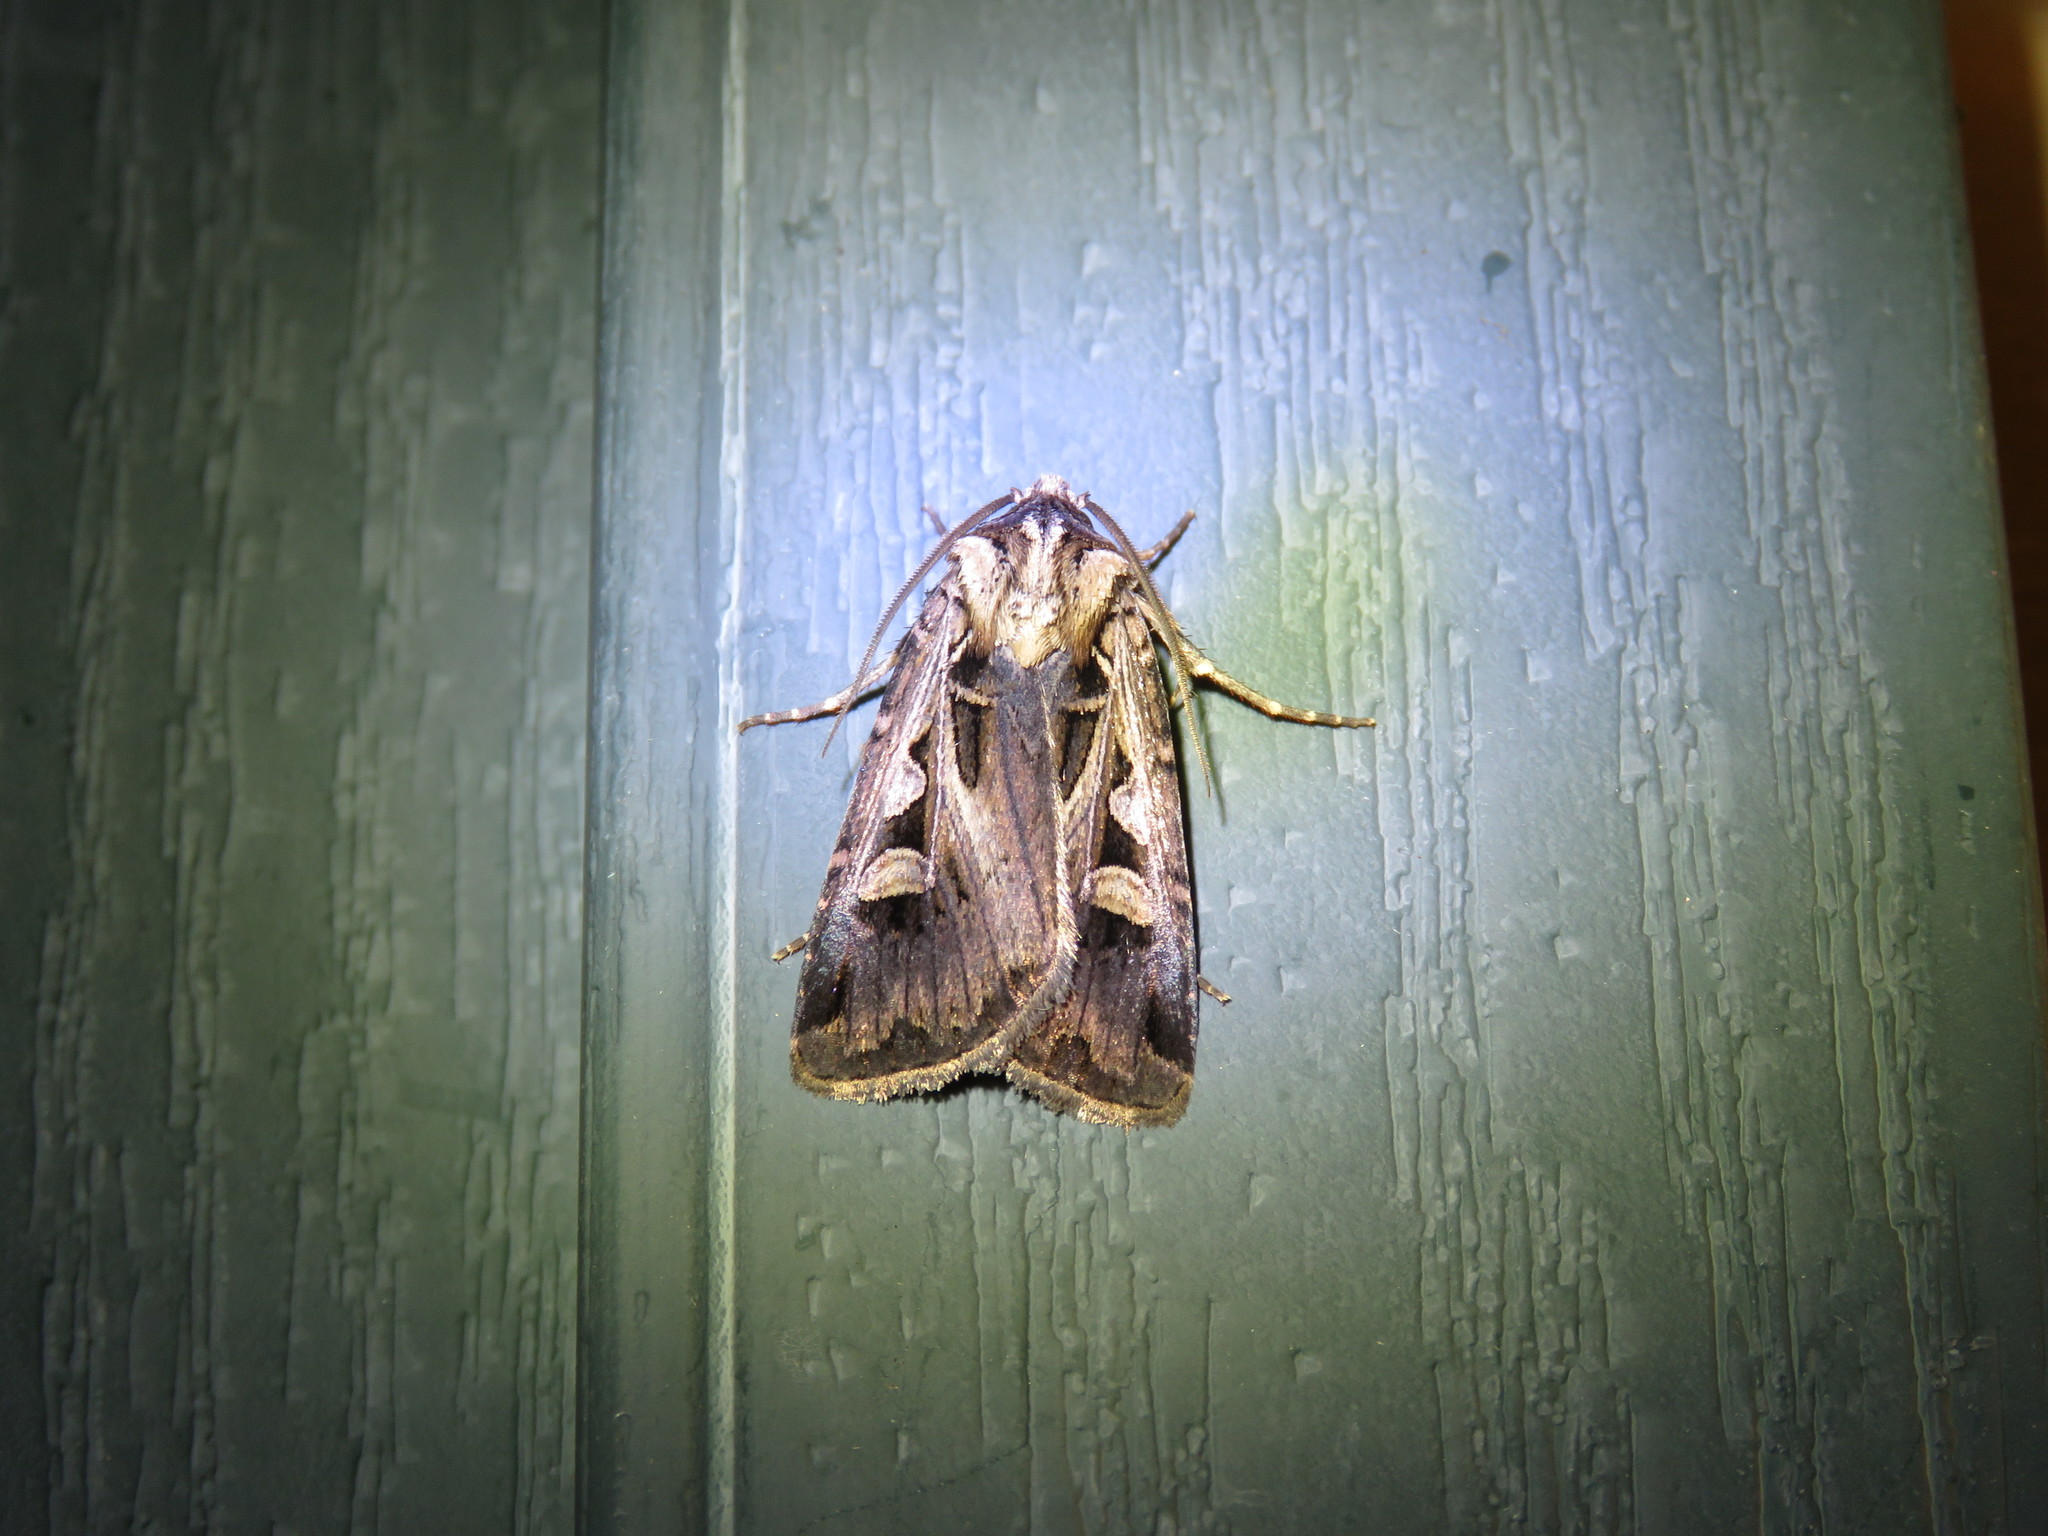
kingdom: Animalia
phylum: Arthropoda
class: Insecta
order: Lepidoptera
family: Noctuidae
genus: Feltia
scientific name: Feltia herilis
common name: Master's dart
